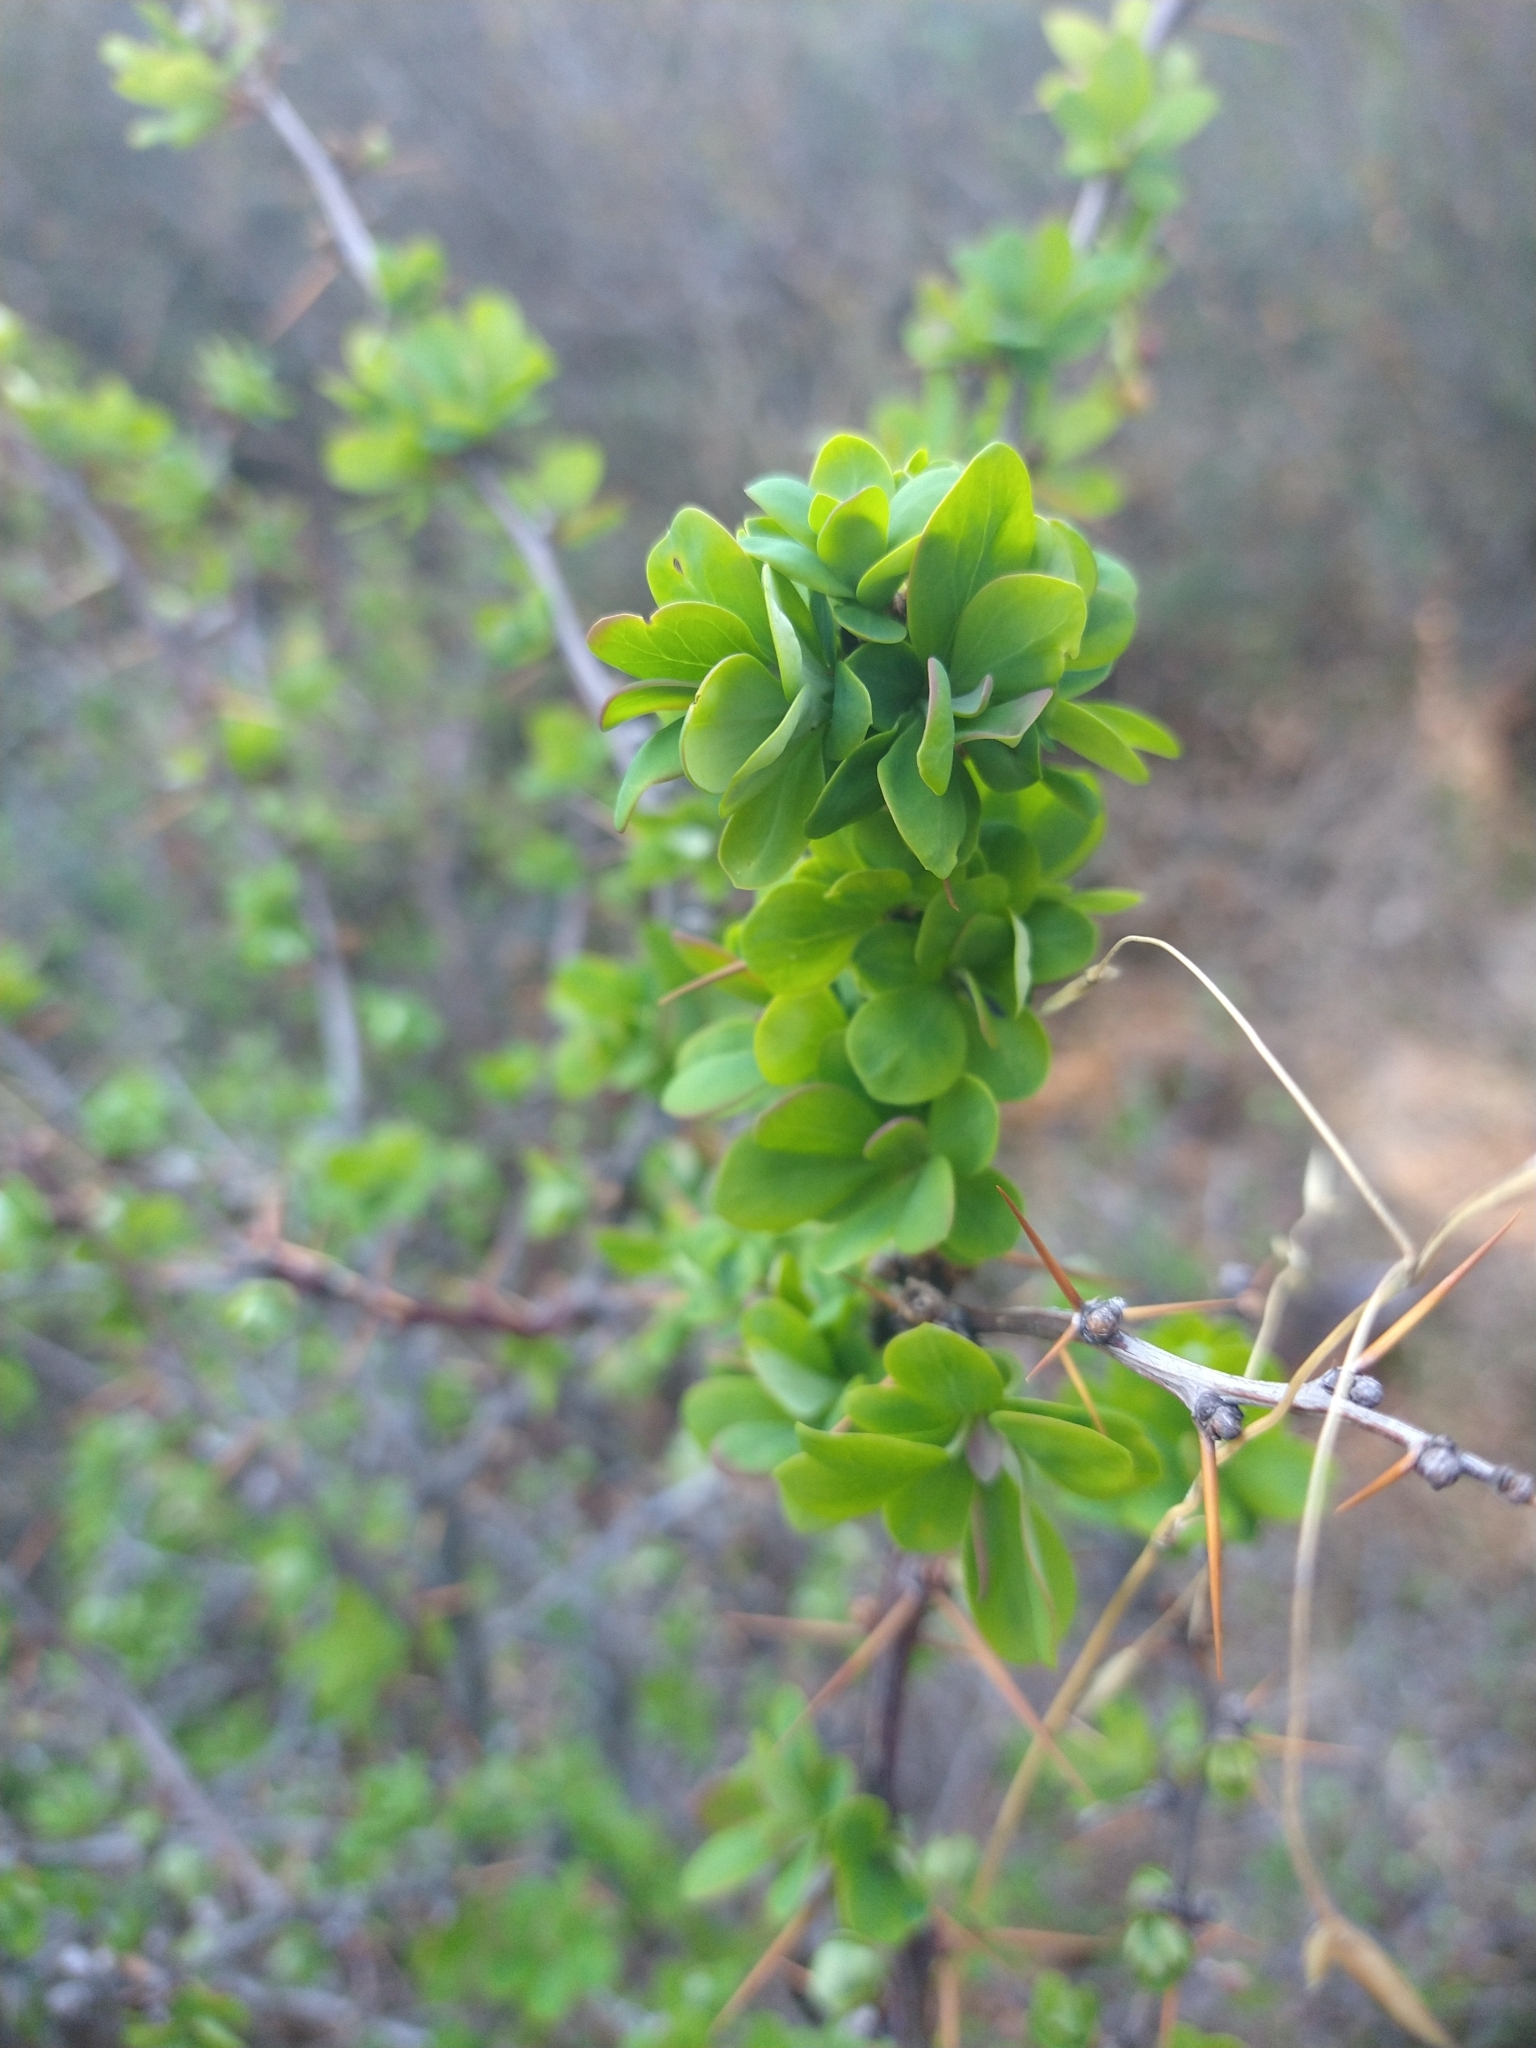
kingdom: Plantae
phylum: Tracheophyta
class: Magnoliopsida
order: Ranunculales
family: Berberidaceae
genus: Berberis
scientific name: Berberis microphylla
